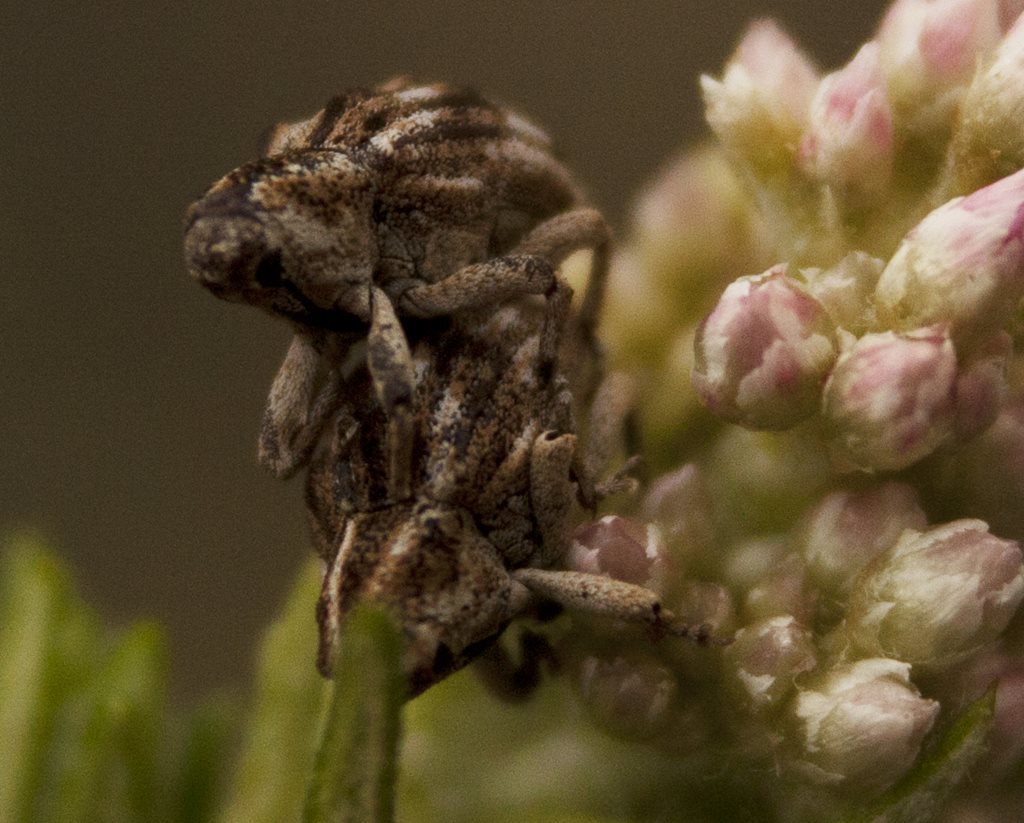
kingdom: Animalia
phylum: Arthropoda
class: Insecta
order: Coleoptera
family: Curculionidae
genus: Phloeoglymma
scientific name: Phloeoglymma
